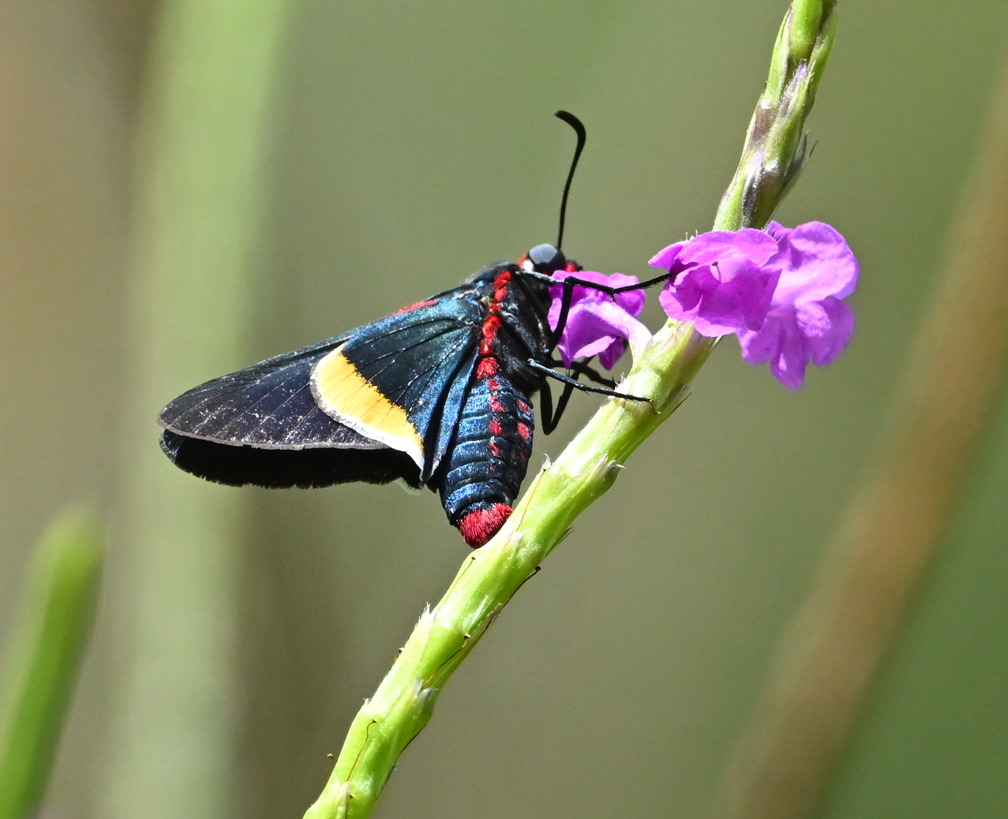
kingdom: Animalia
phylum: Arthropoda
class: Insecta
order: Lepidoptera
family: Hesperiidae
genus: Mysoria
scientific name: Mysoria barcastus
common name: Royal firetip
